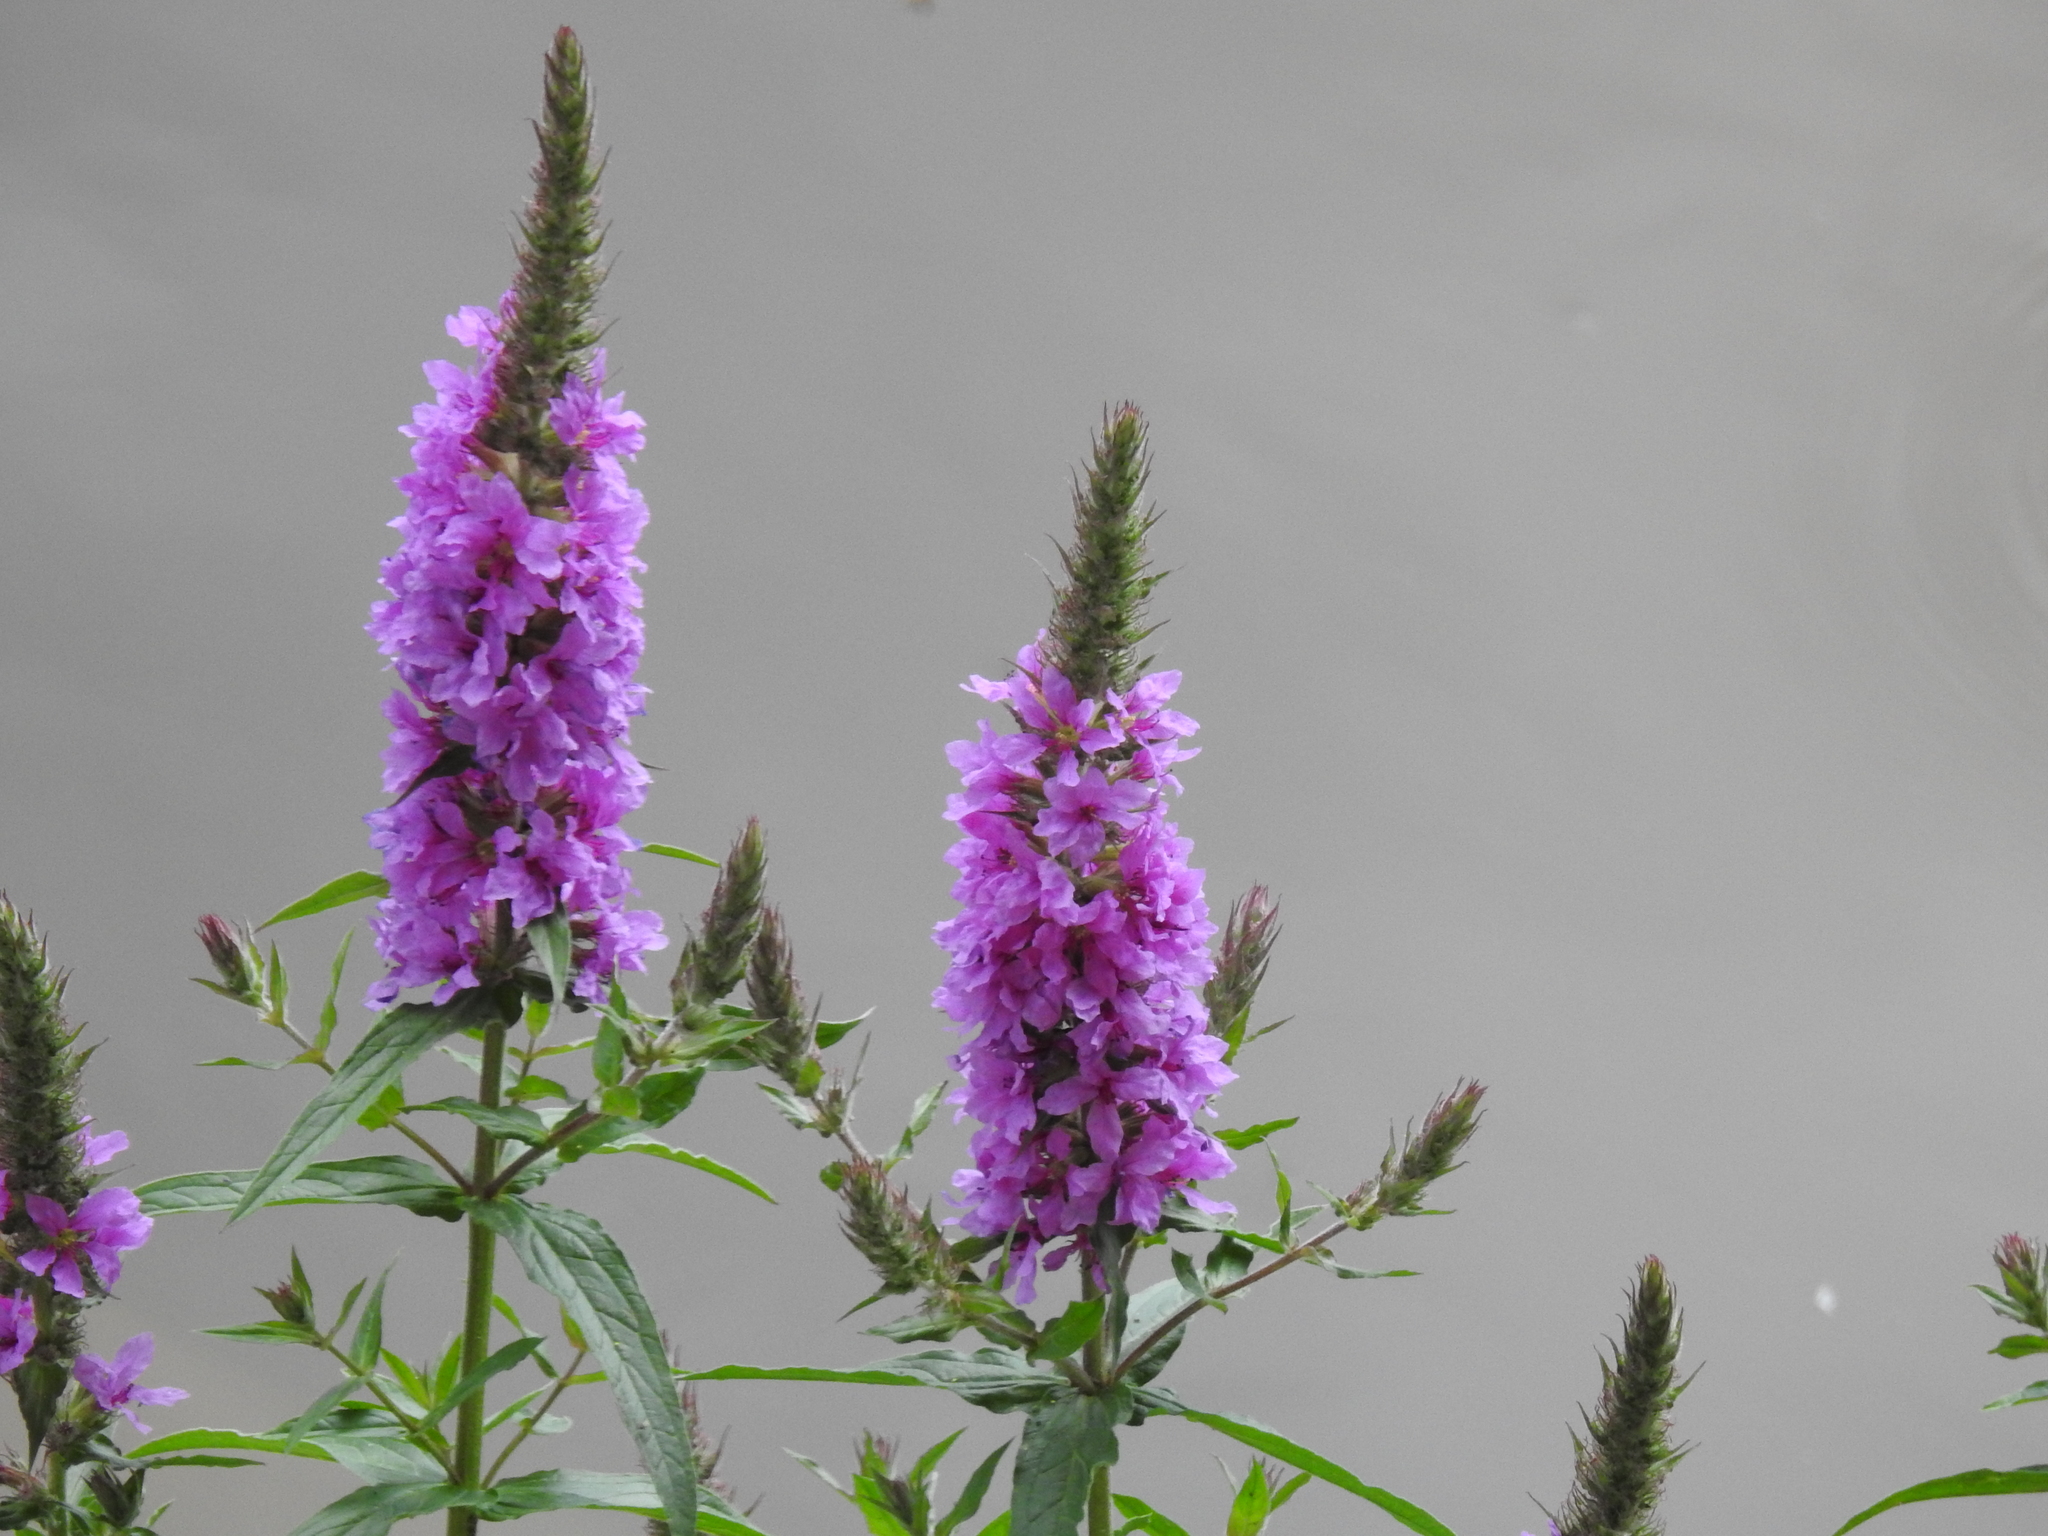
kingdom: Plantae
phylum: Tracheophyta
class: Magnoliopsida
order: Myrtales
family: Lythraceae
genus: Lythrum
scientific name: Lythrum salicaria
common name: Purple loosestrife
